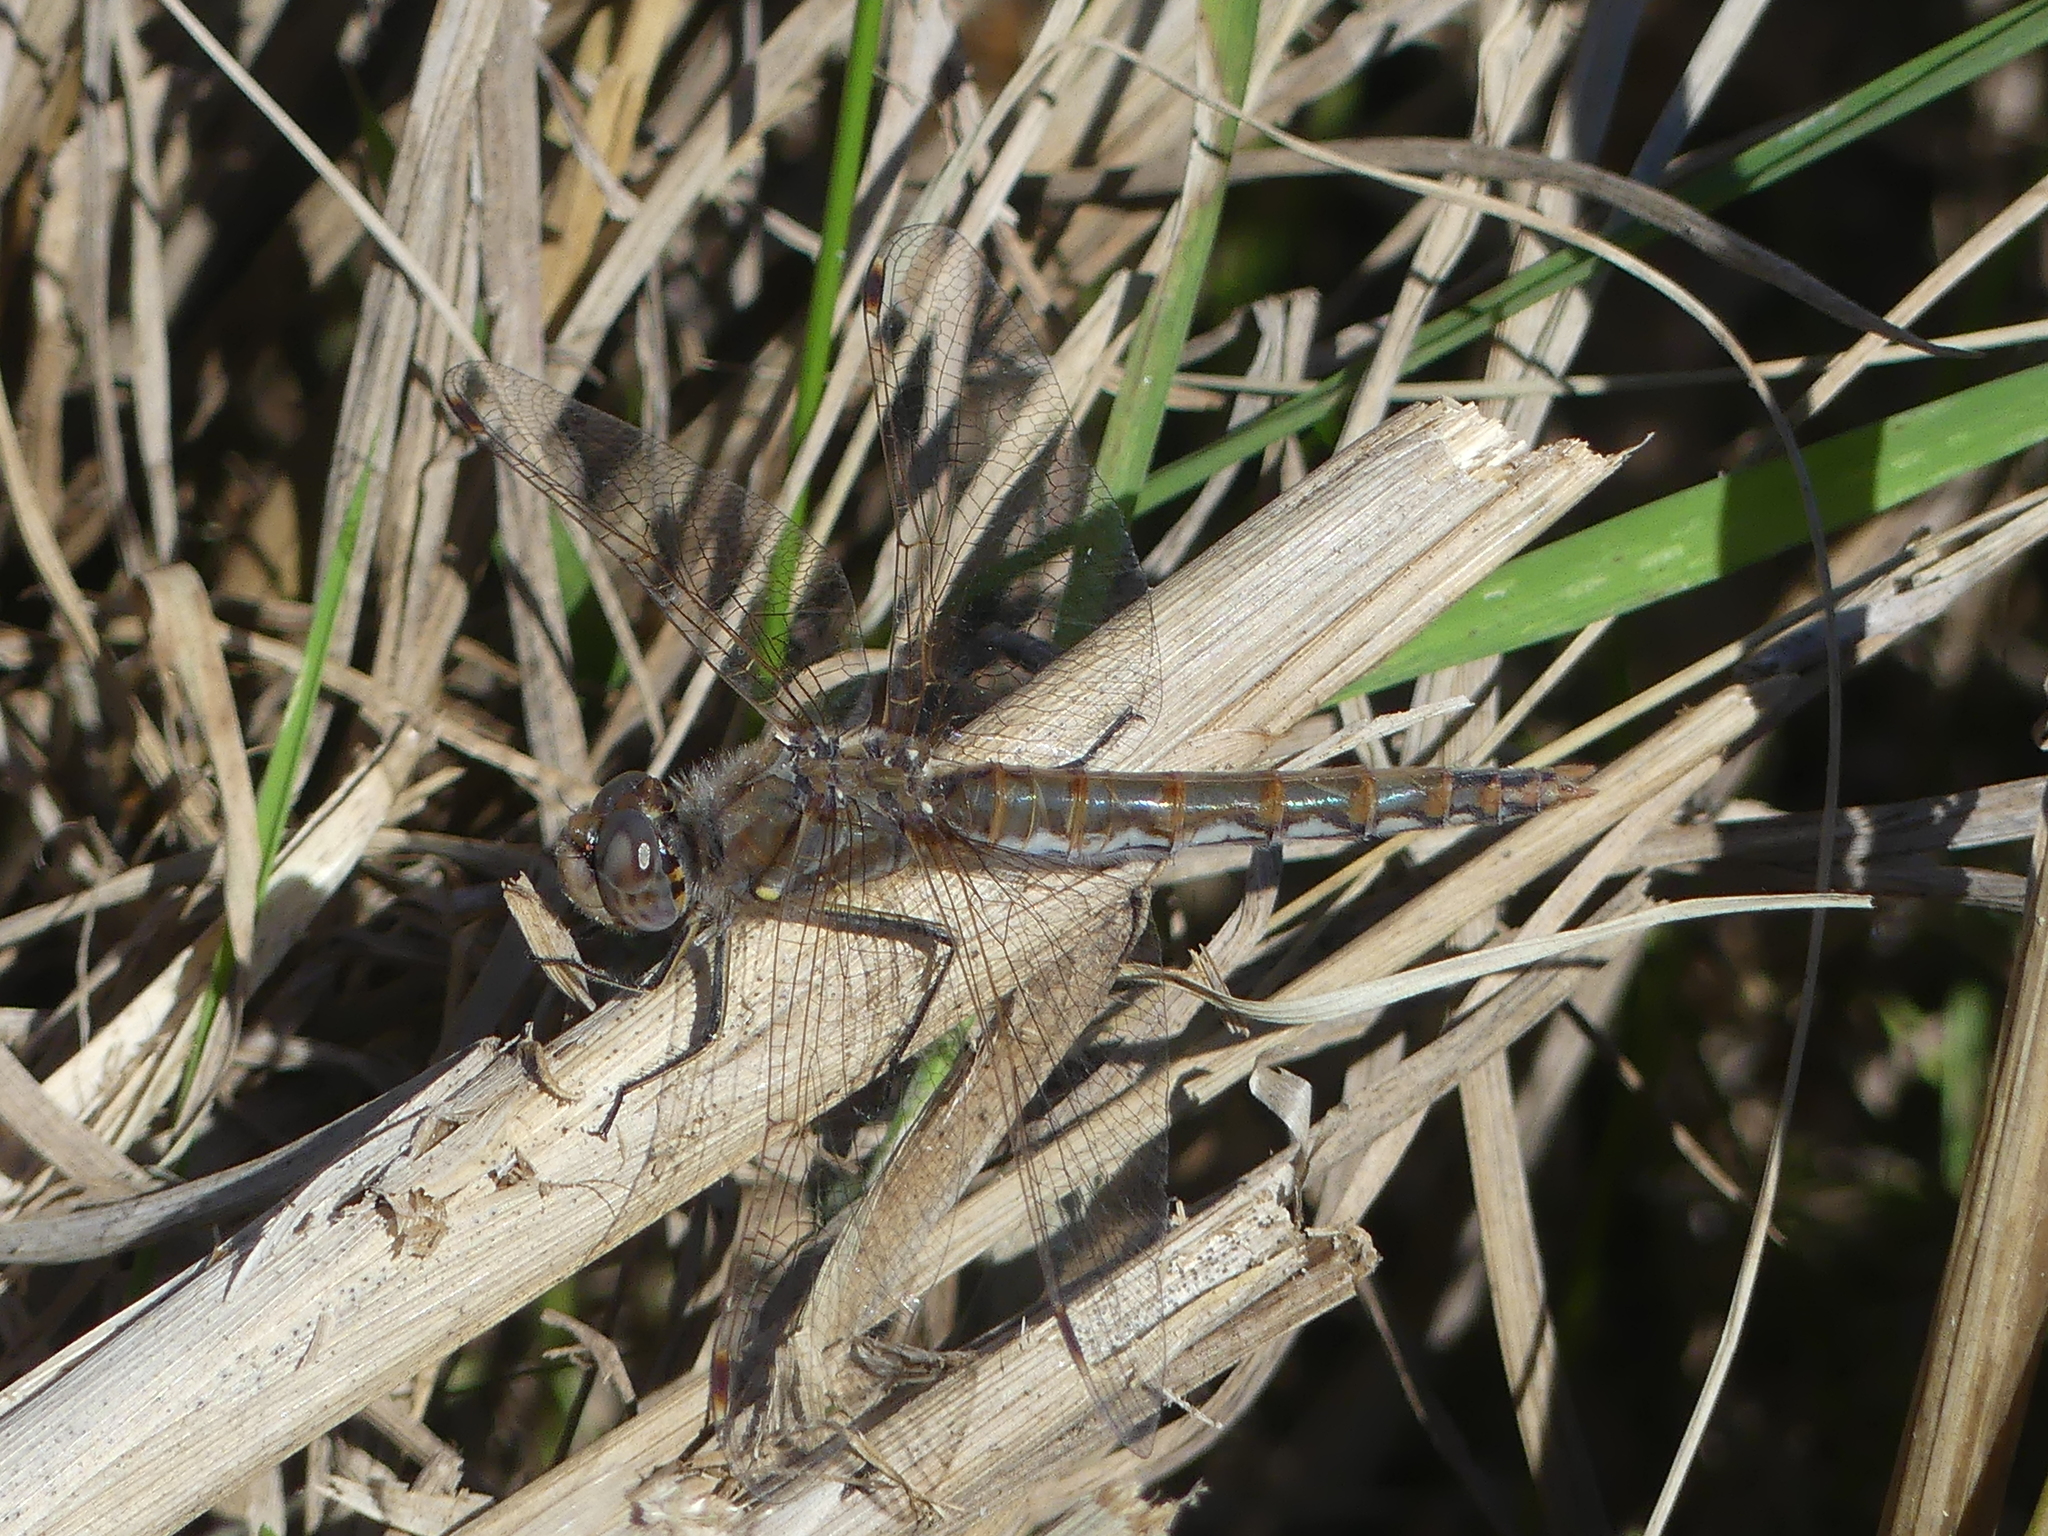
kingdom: Animalia
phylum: Arthropoda
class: Insecta
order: Odonata
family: Libellulidae
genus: Sympetrum
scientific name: Sympetrum corruptum
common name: Variegated meadowhawk
